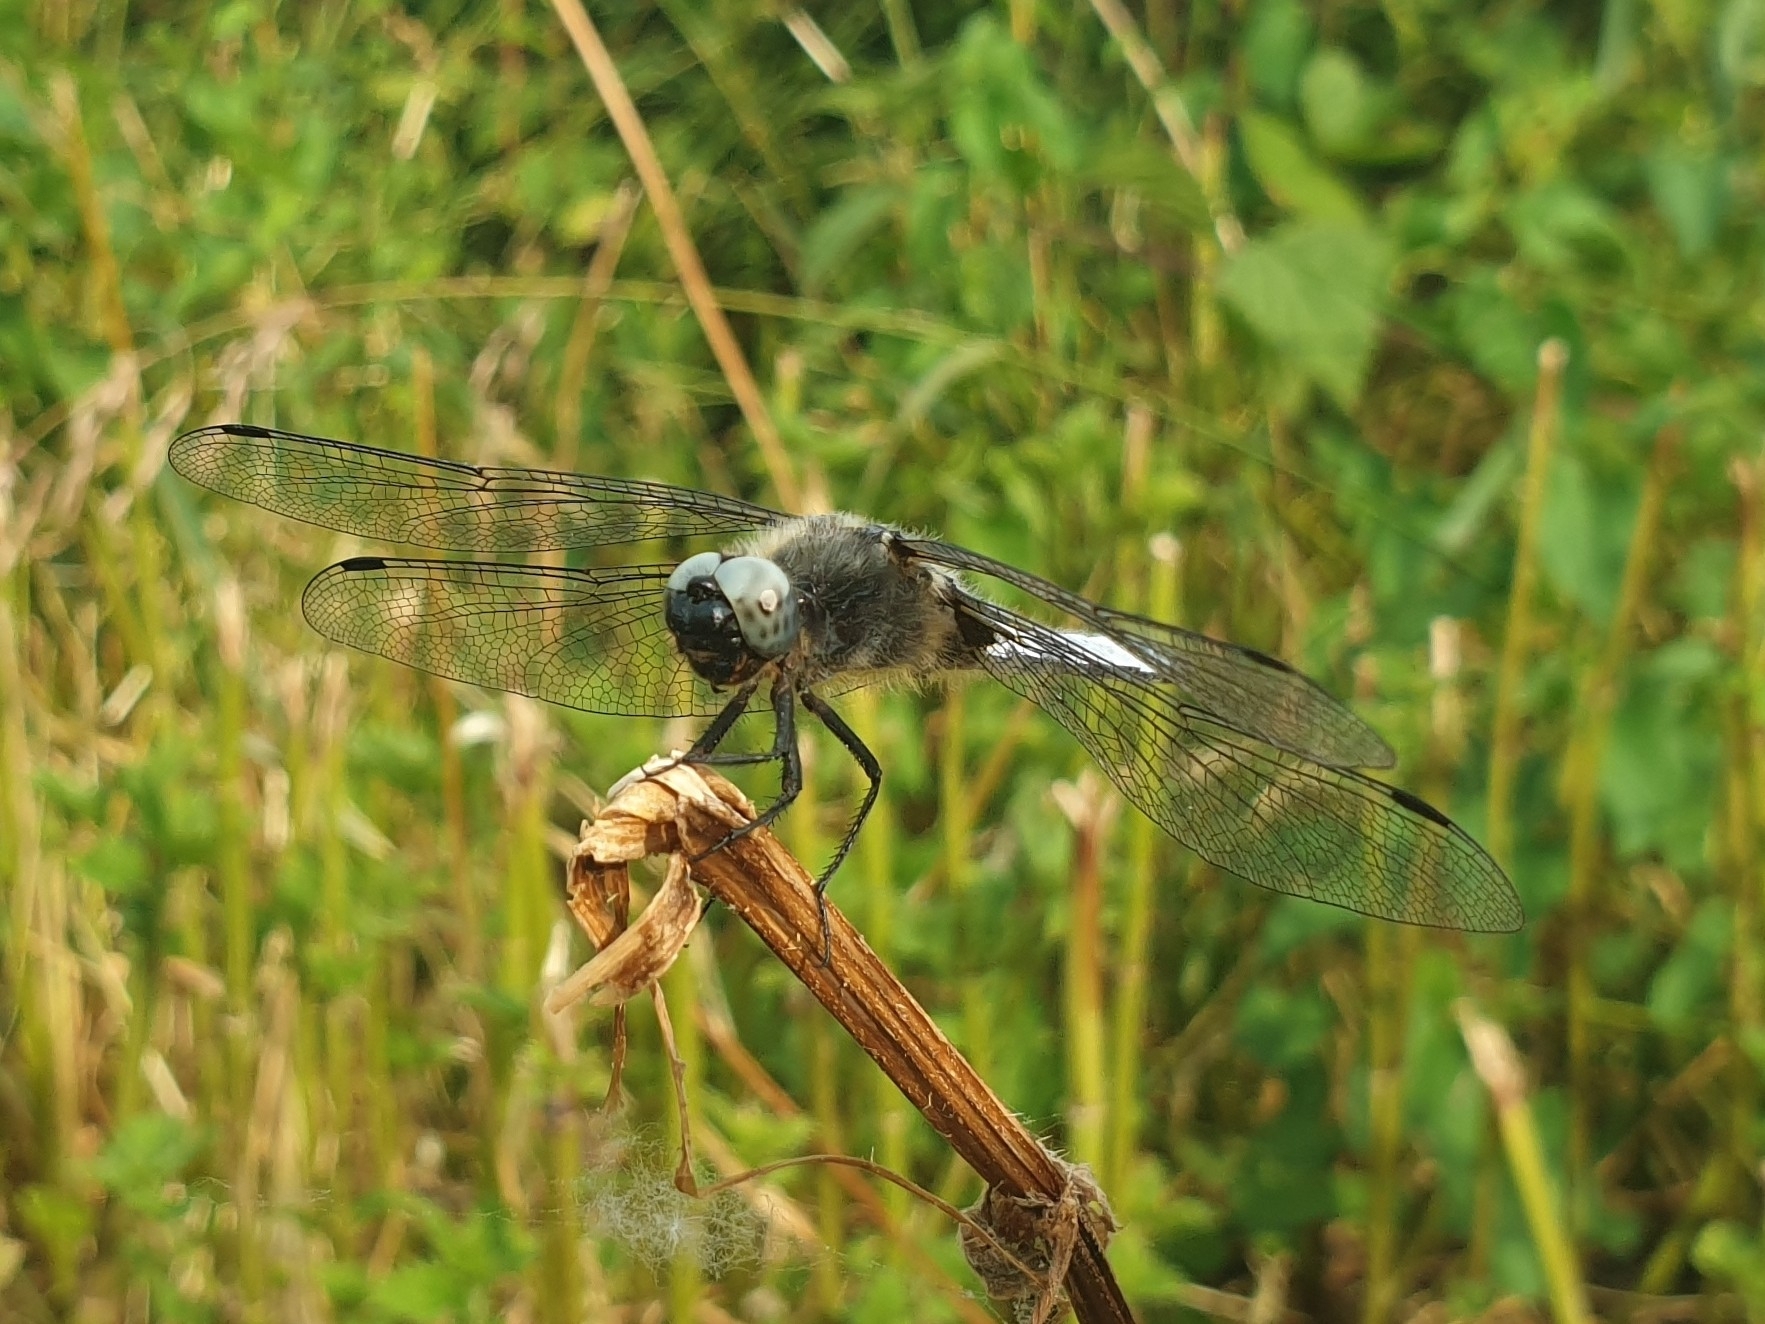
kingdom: Animalia
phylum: Arthropoda
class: Insecta
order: Odonata
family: Libellulidae
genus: Libellula
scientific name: Libellula fulva
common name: Blue chaser
